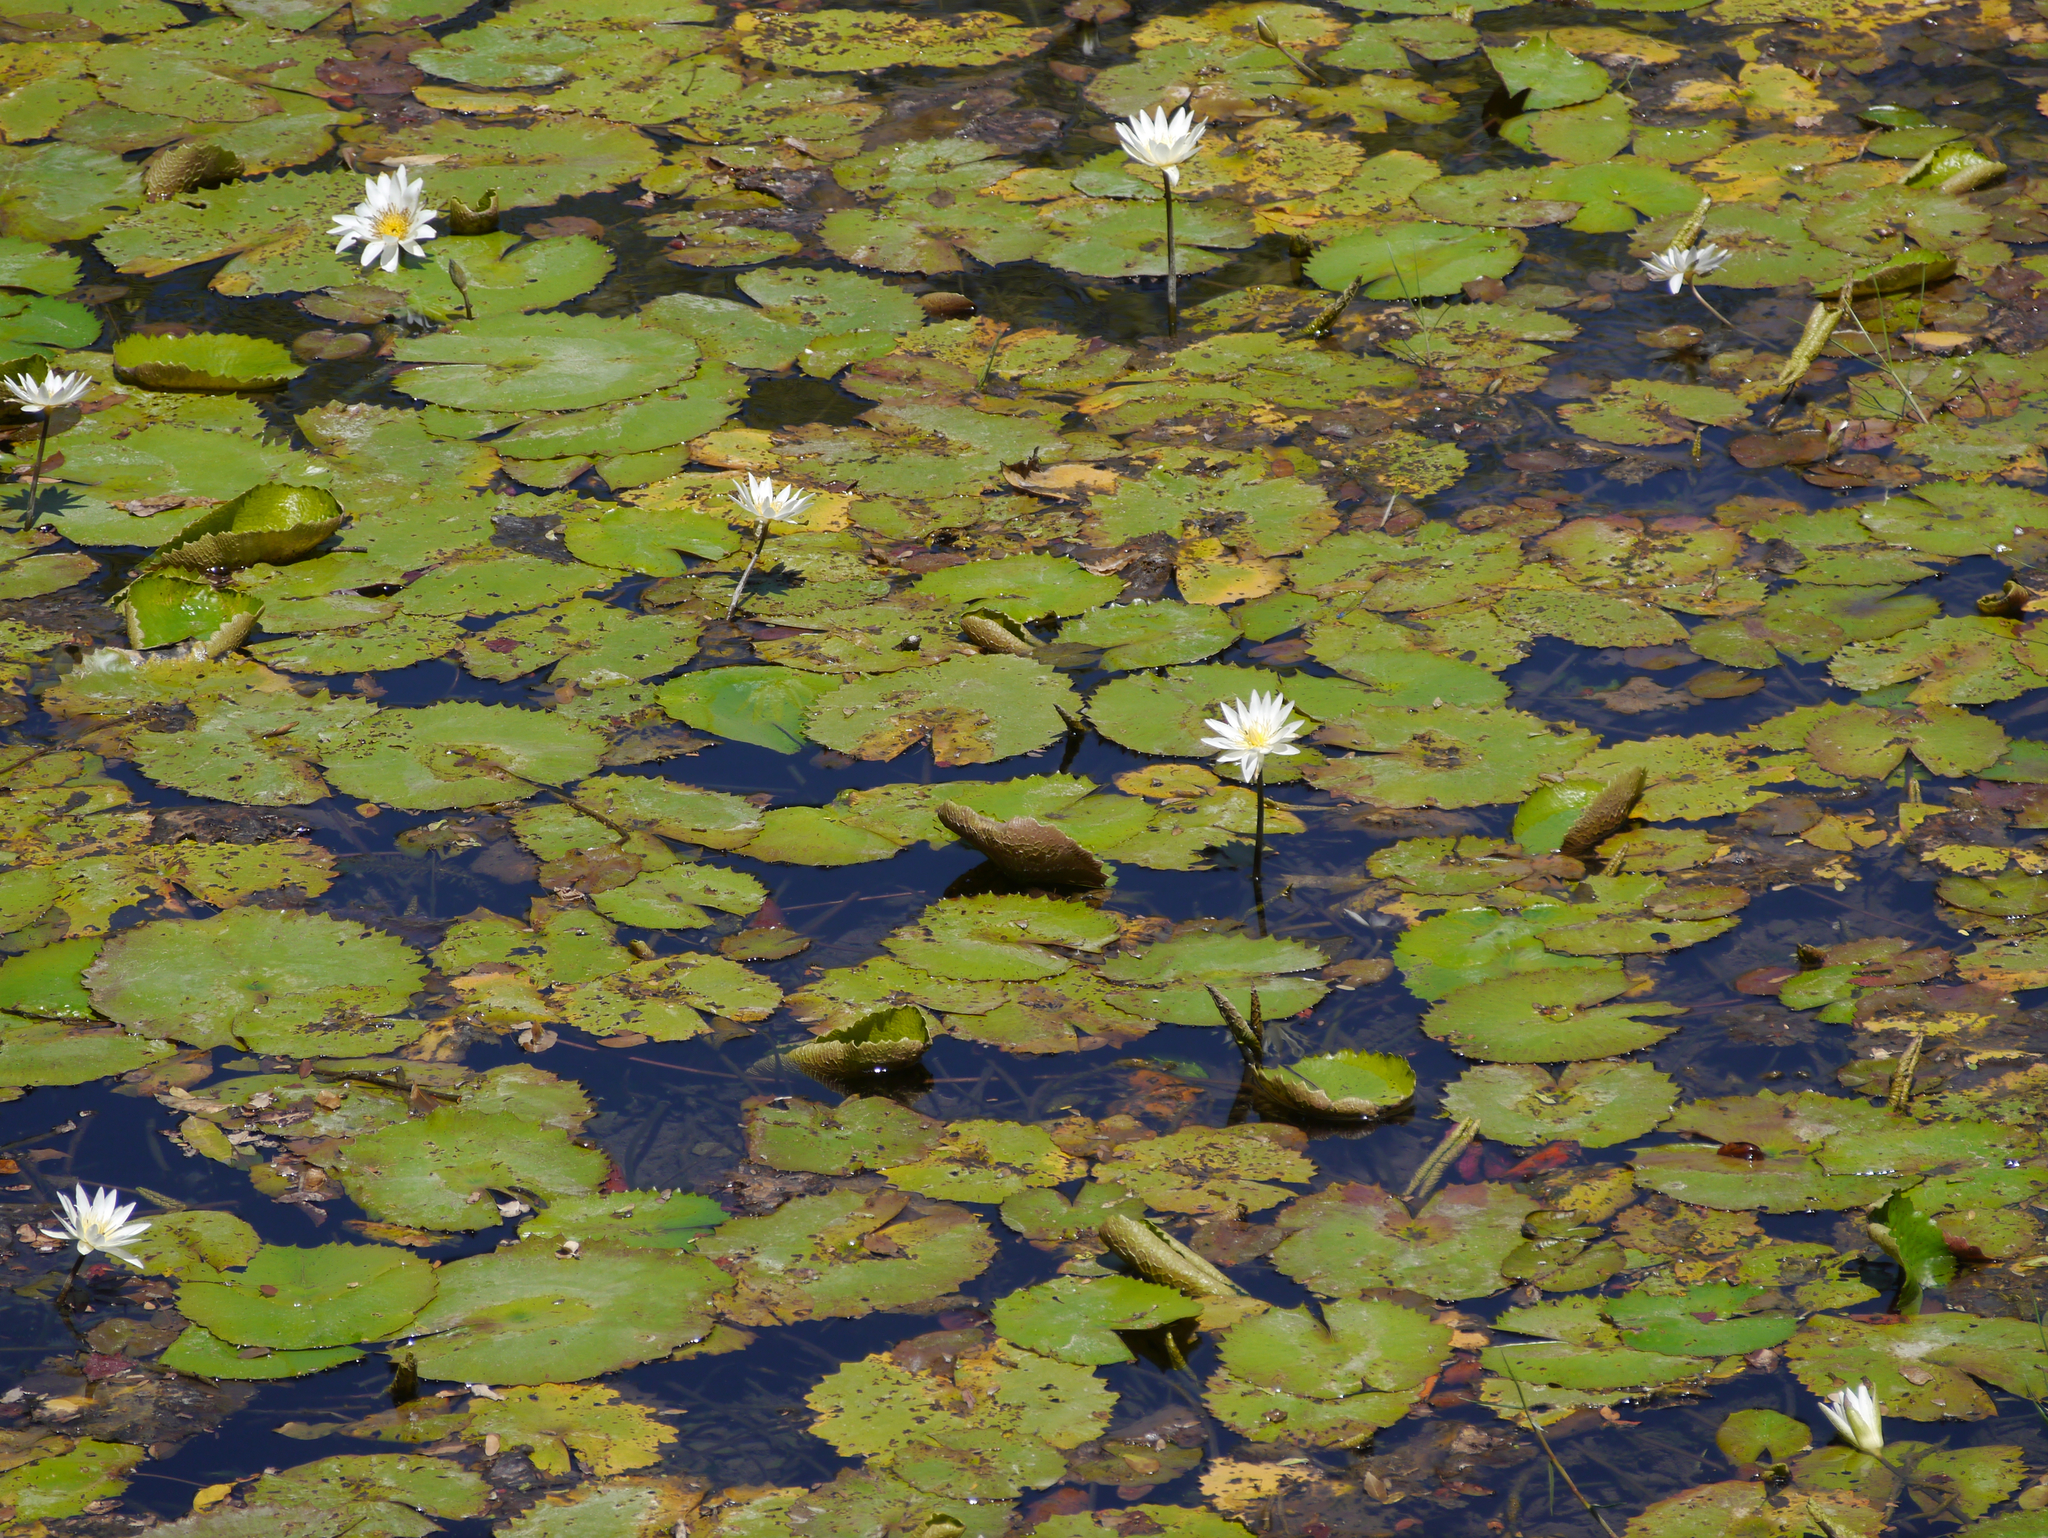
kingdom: Plantae
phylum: Tracheophyta
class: Magnoliopsida
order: Nymphaeales
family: Nymphaeaceae
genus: Nymphaea
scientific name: Nymphaea ampla
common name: Dotleaf waterlily
